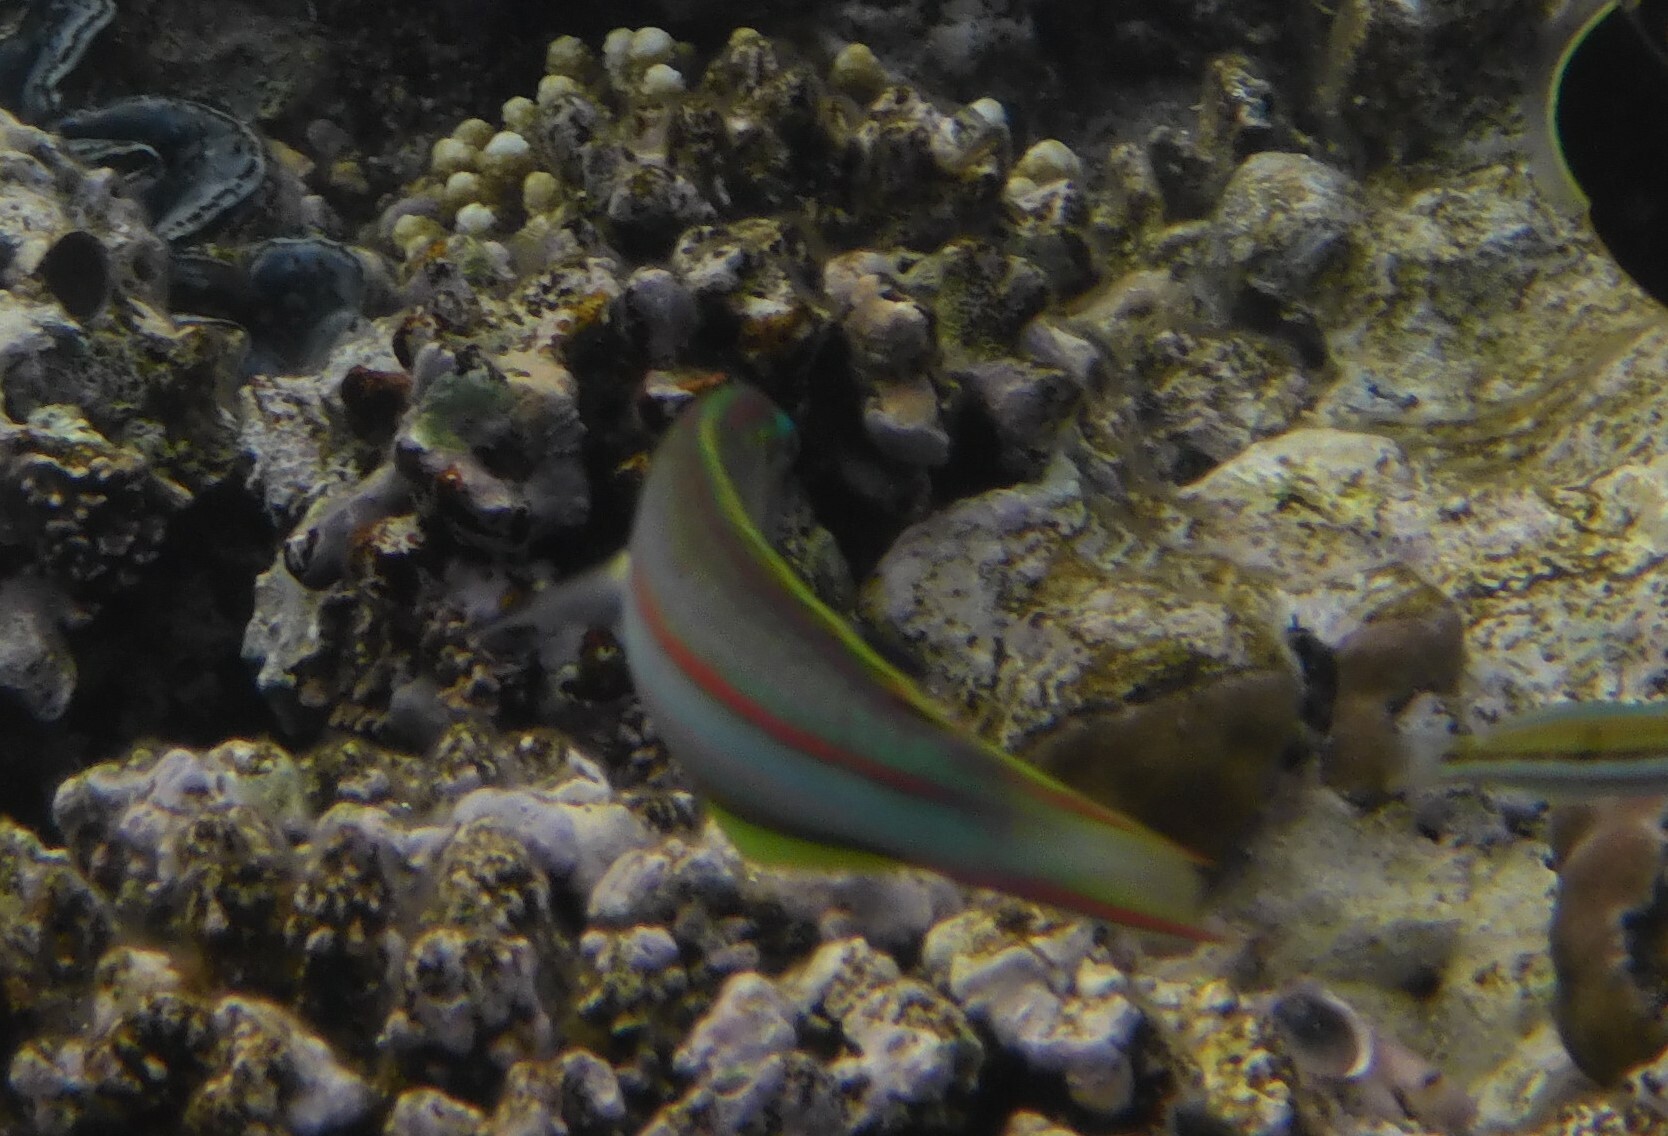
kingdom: Animalia
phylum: Chordata
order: Perciformes
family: Labridae
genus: Thalassoma
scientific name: Thalassoma rueppellii
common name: Klunzinger's wrasse
